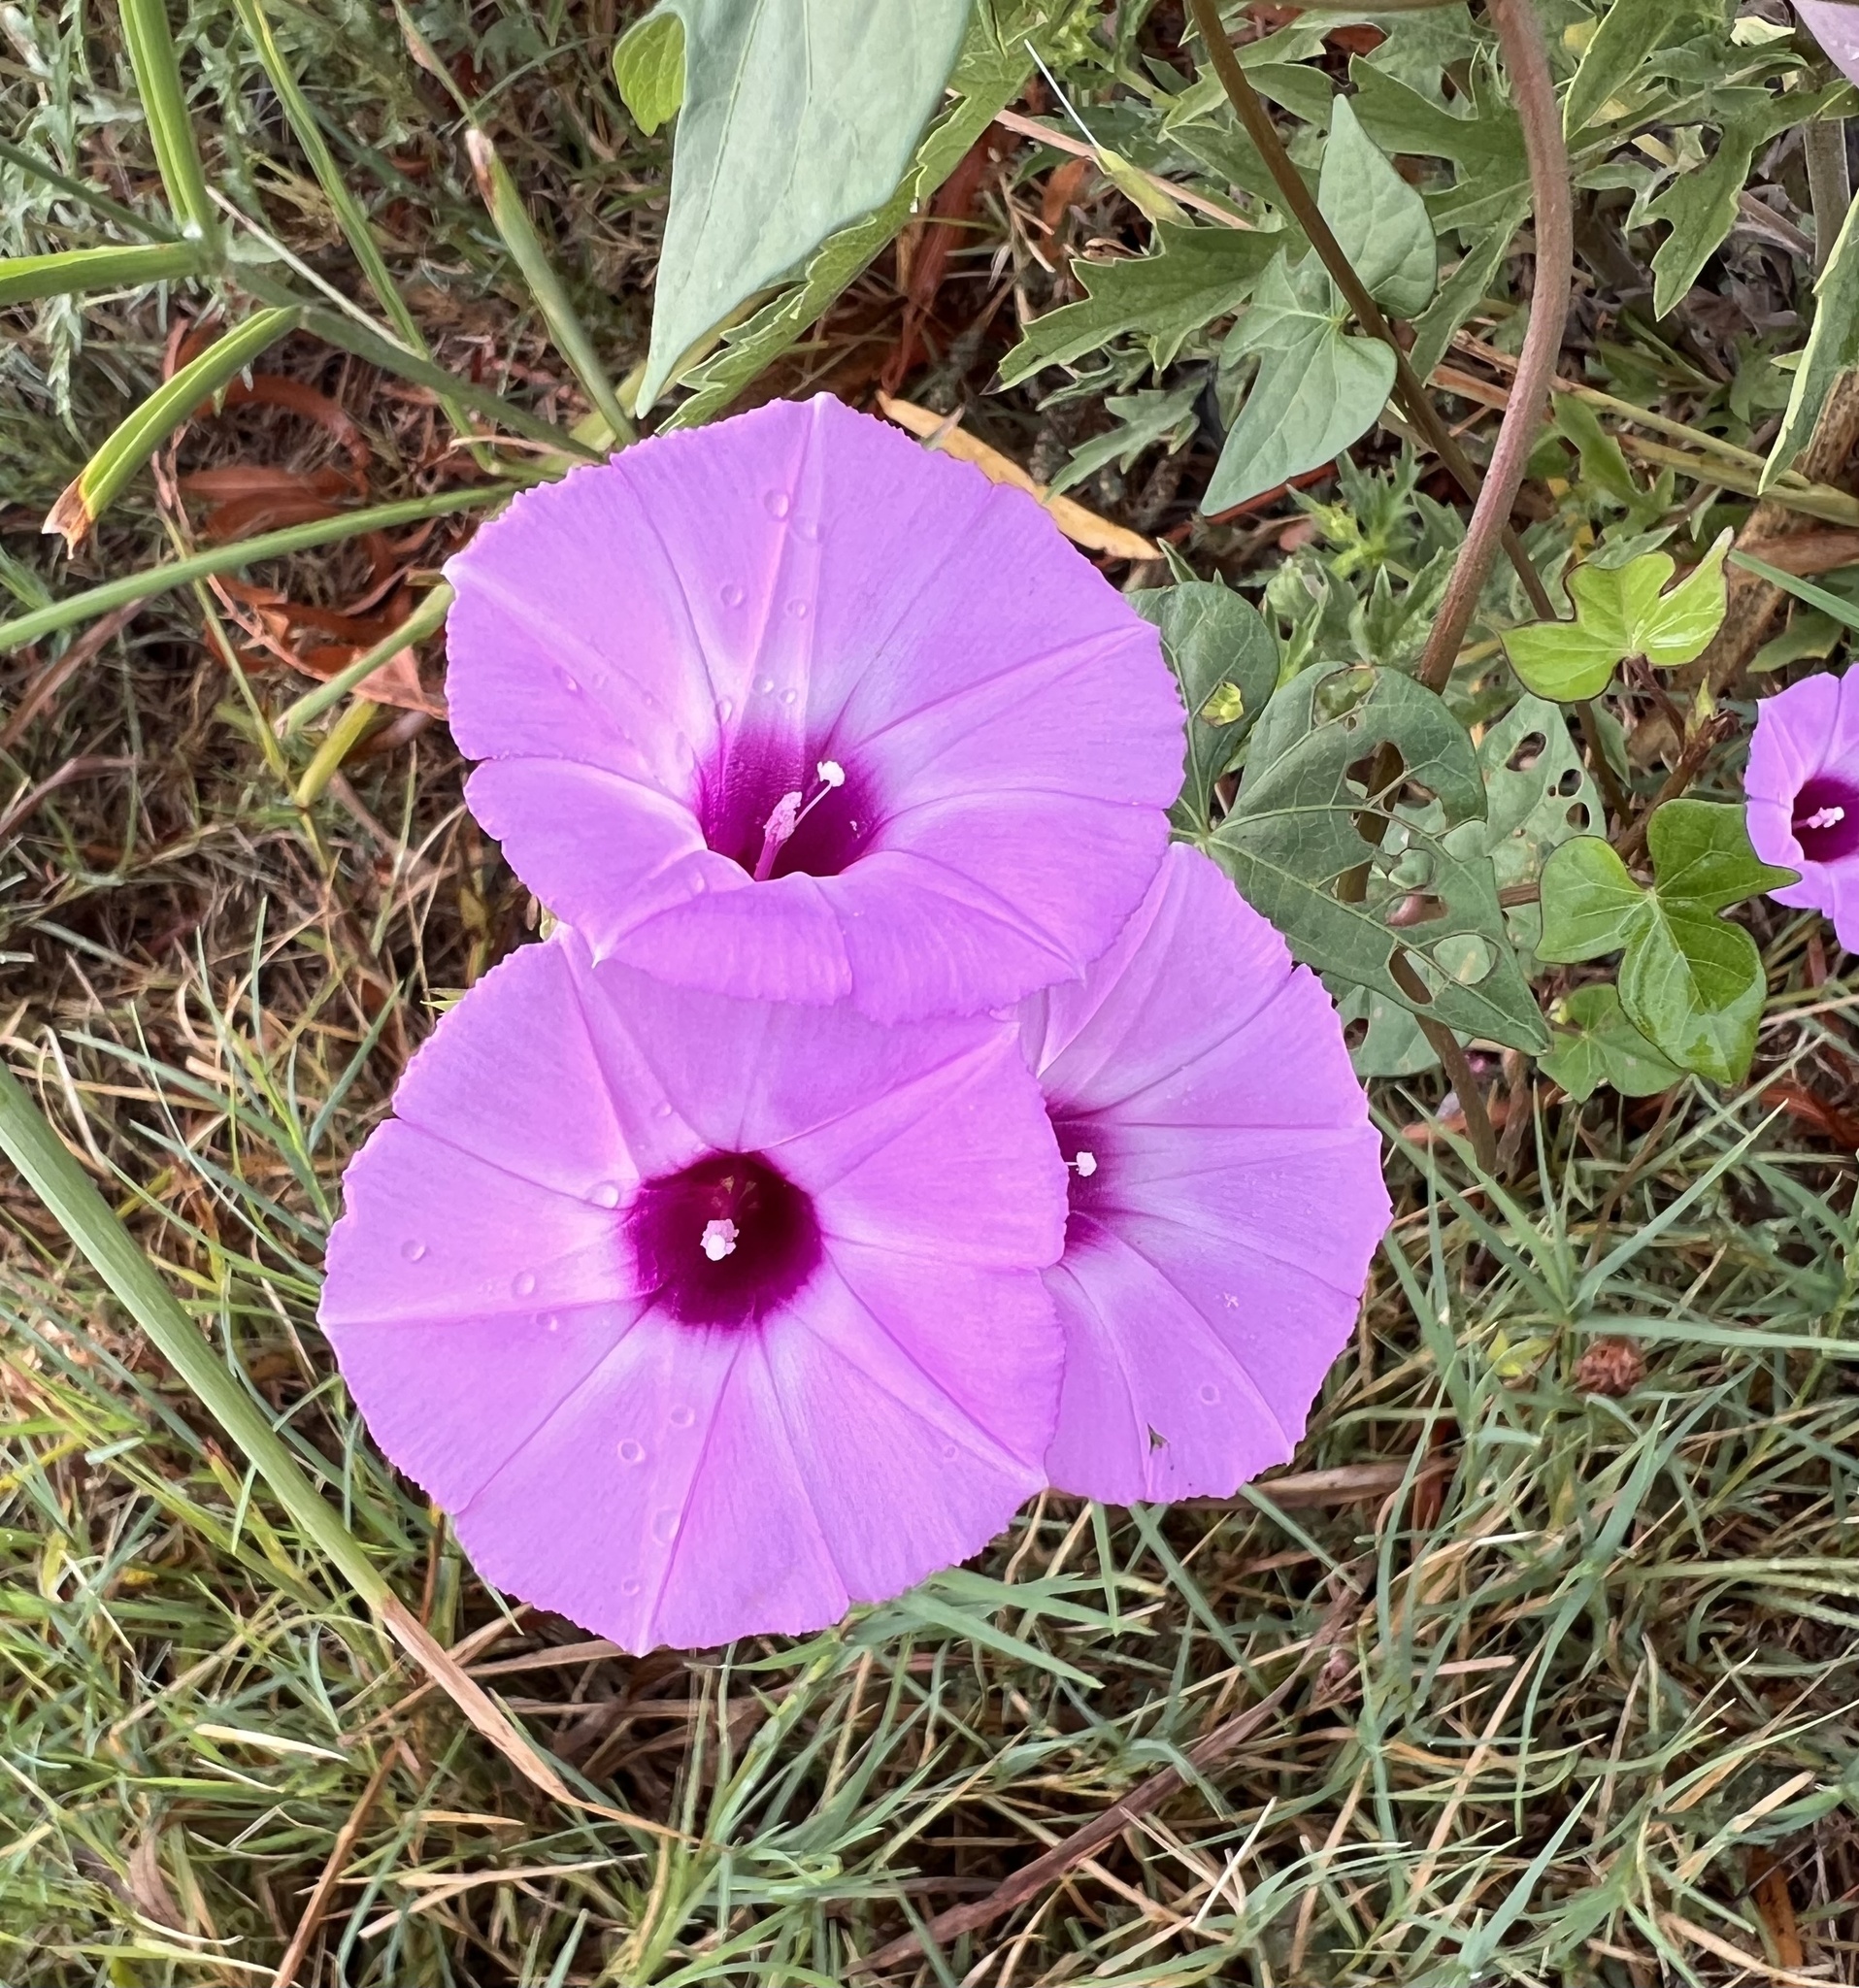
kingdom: Plantae
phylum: Tracheophyta
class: Magnoliopsida
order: Solanales
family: Convolvulaceae
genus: Ipomoea
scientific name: Ipomoea cordatotriloba
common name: Cotton morning glory
